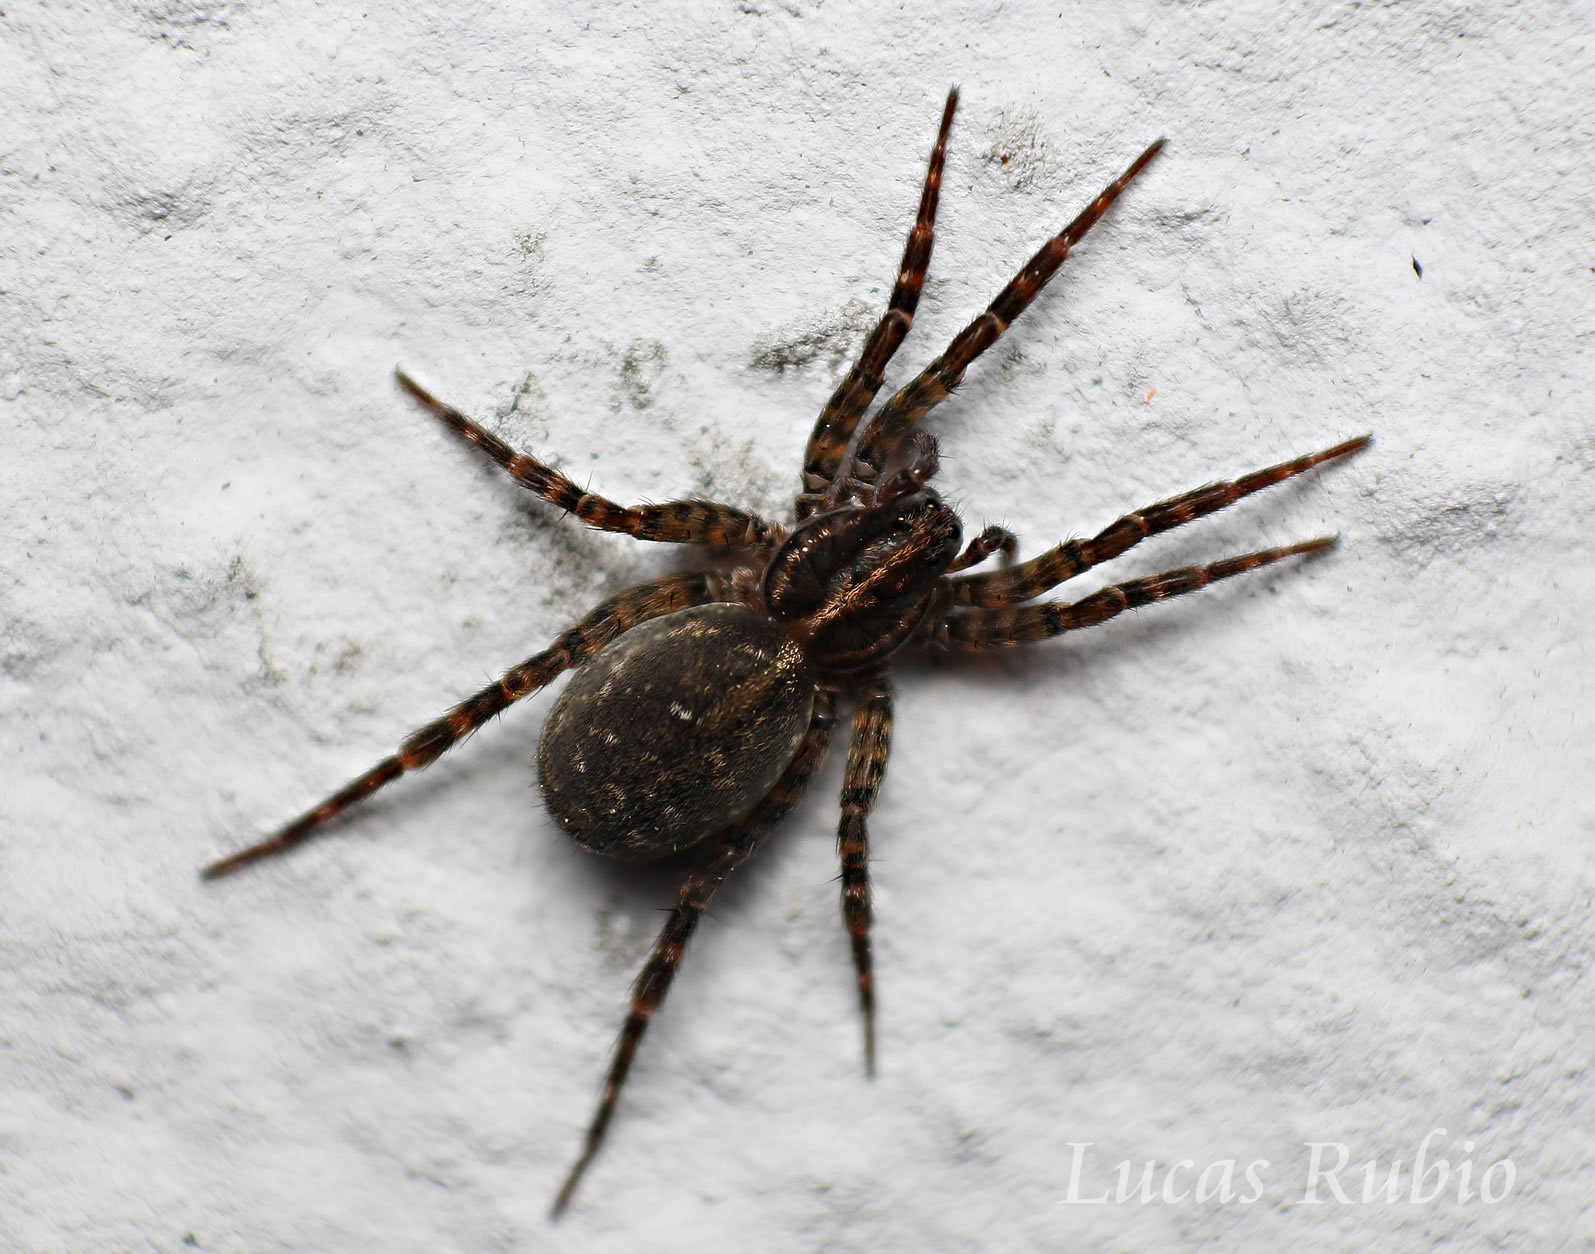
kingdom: Animalia
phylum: Arthropoda
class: Arachnida
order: Araneae
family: Lycosidae
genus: Lobizon
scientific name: Lobizon humilis
